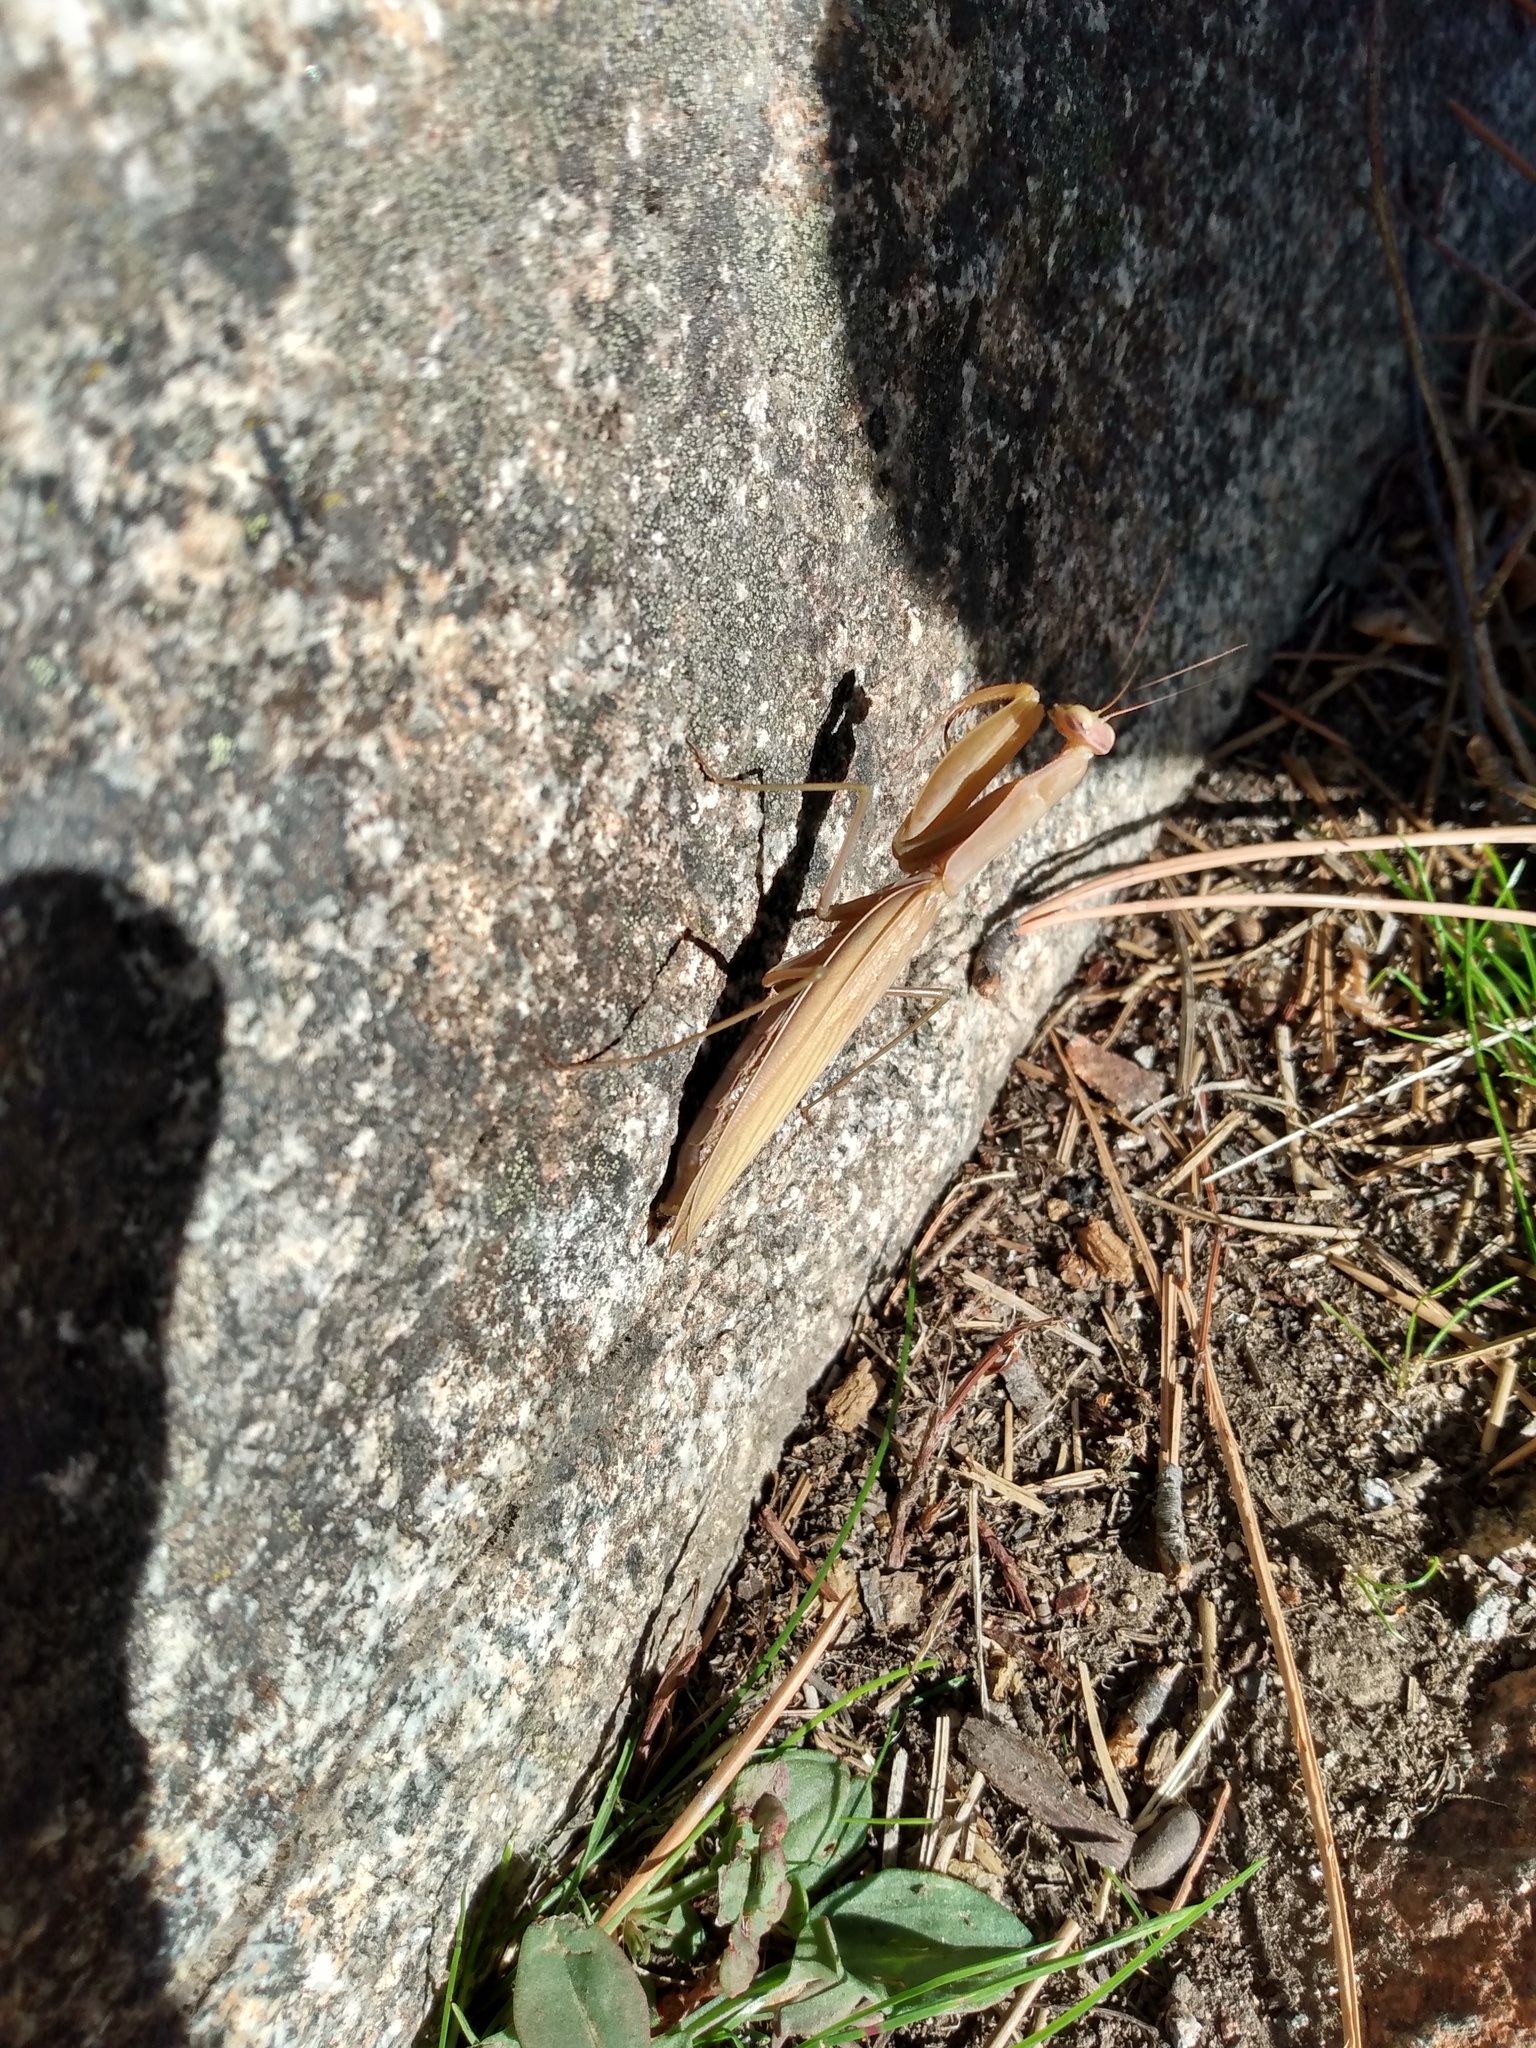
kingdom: Animalia
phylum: Arthropoda
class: Insecta
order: Mantodea
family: Mantidae
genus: Mantis
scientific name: Mantis religiosa
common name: Praying mantis
